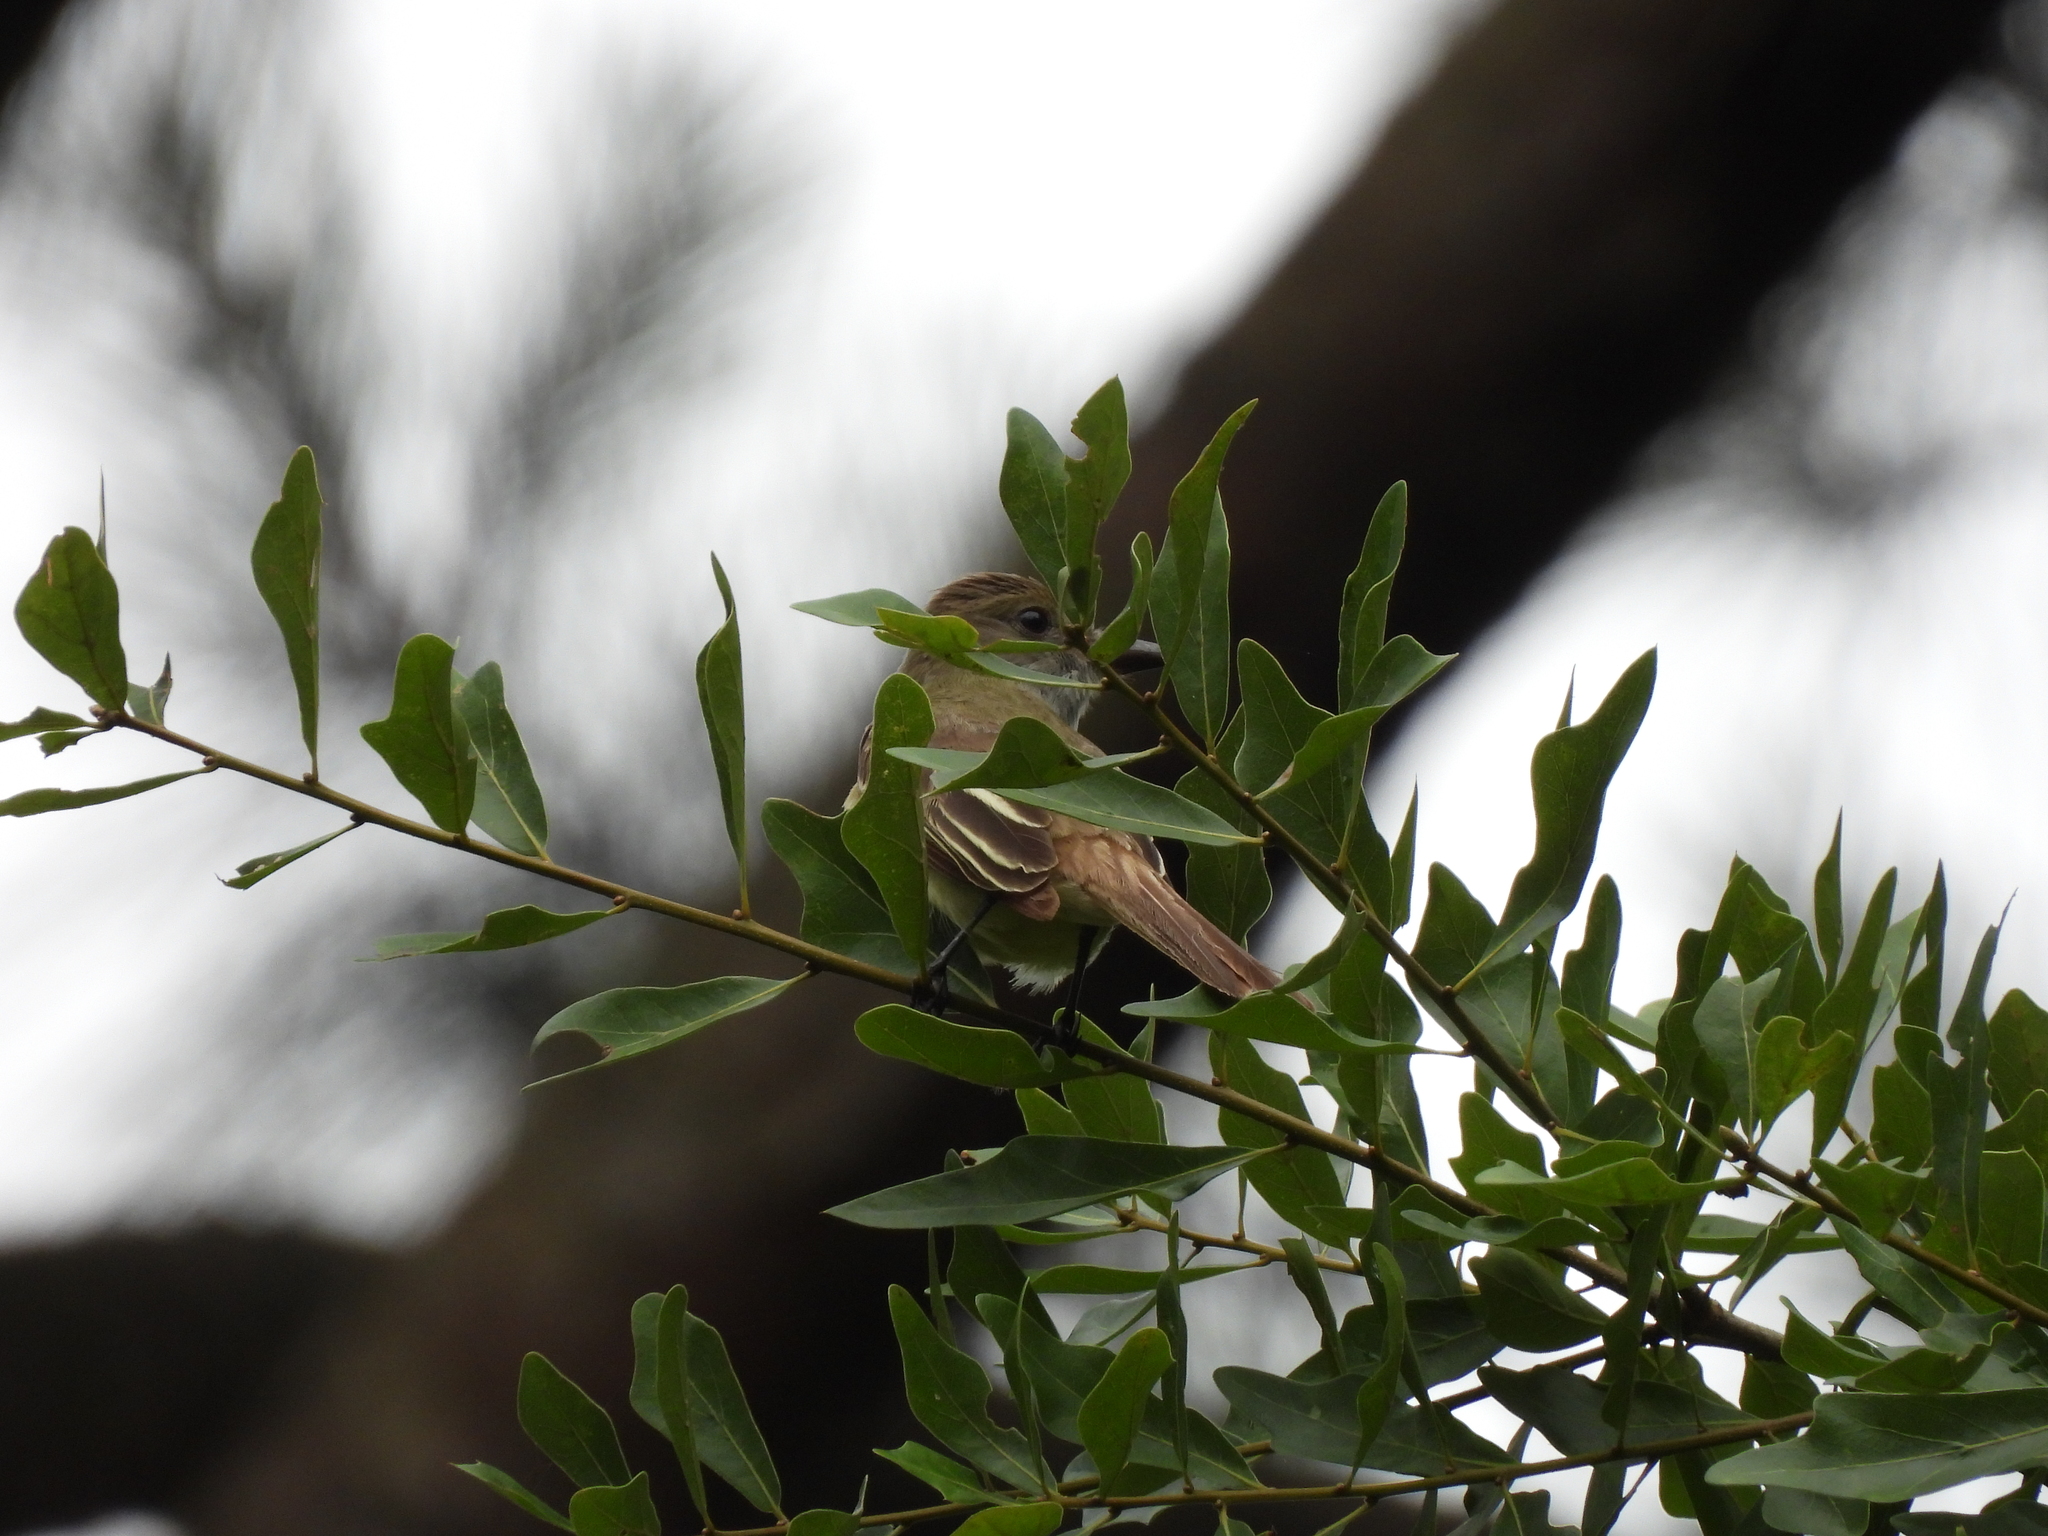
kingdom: Animalia
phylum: Chordata
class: Aves
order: Passeriformes
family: Tyrannidae
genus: Myiarchus
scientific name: Myiarchus crinitus
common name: Great crested flycatcher
